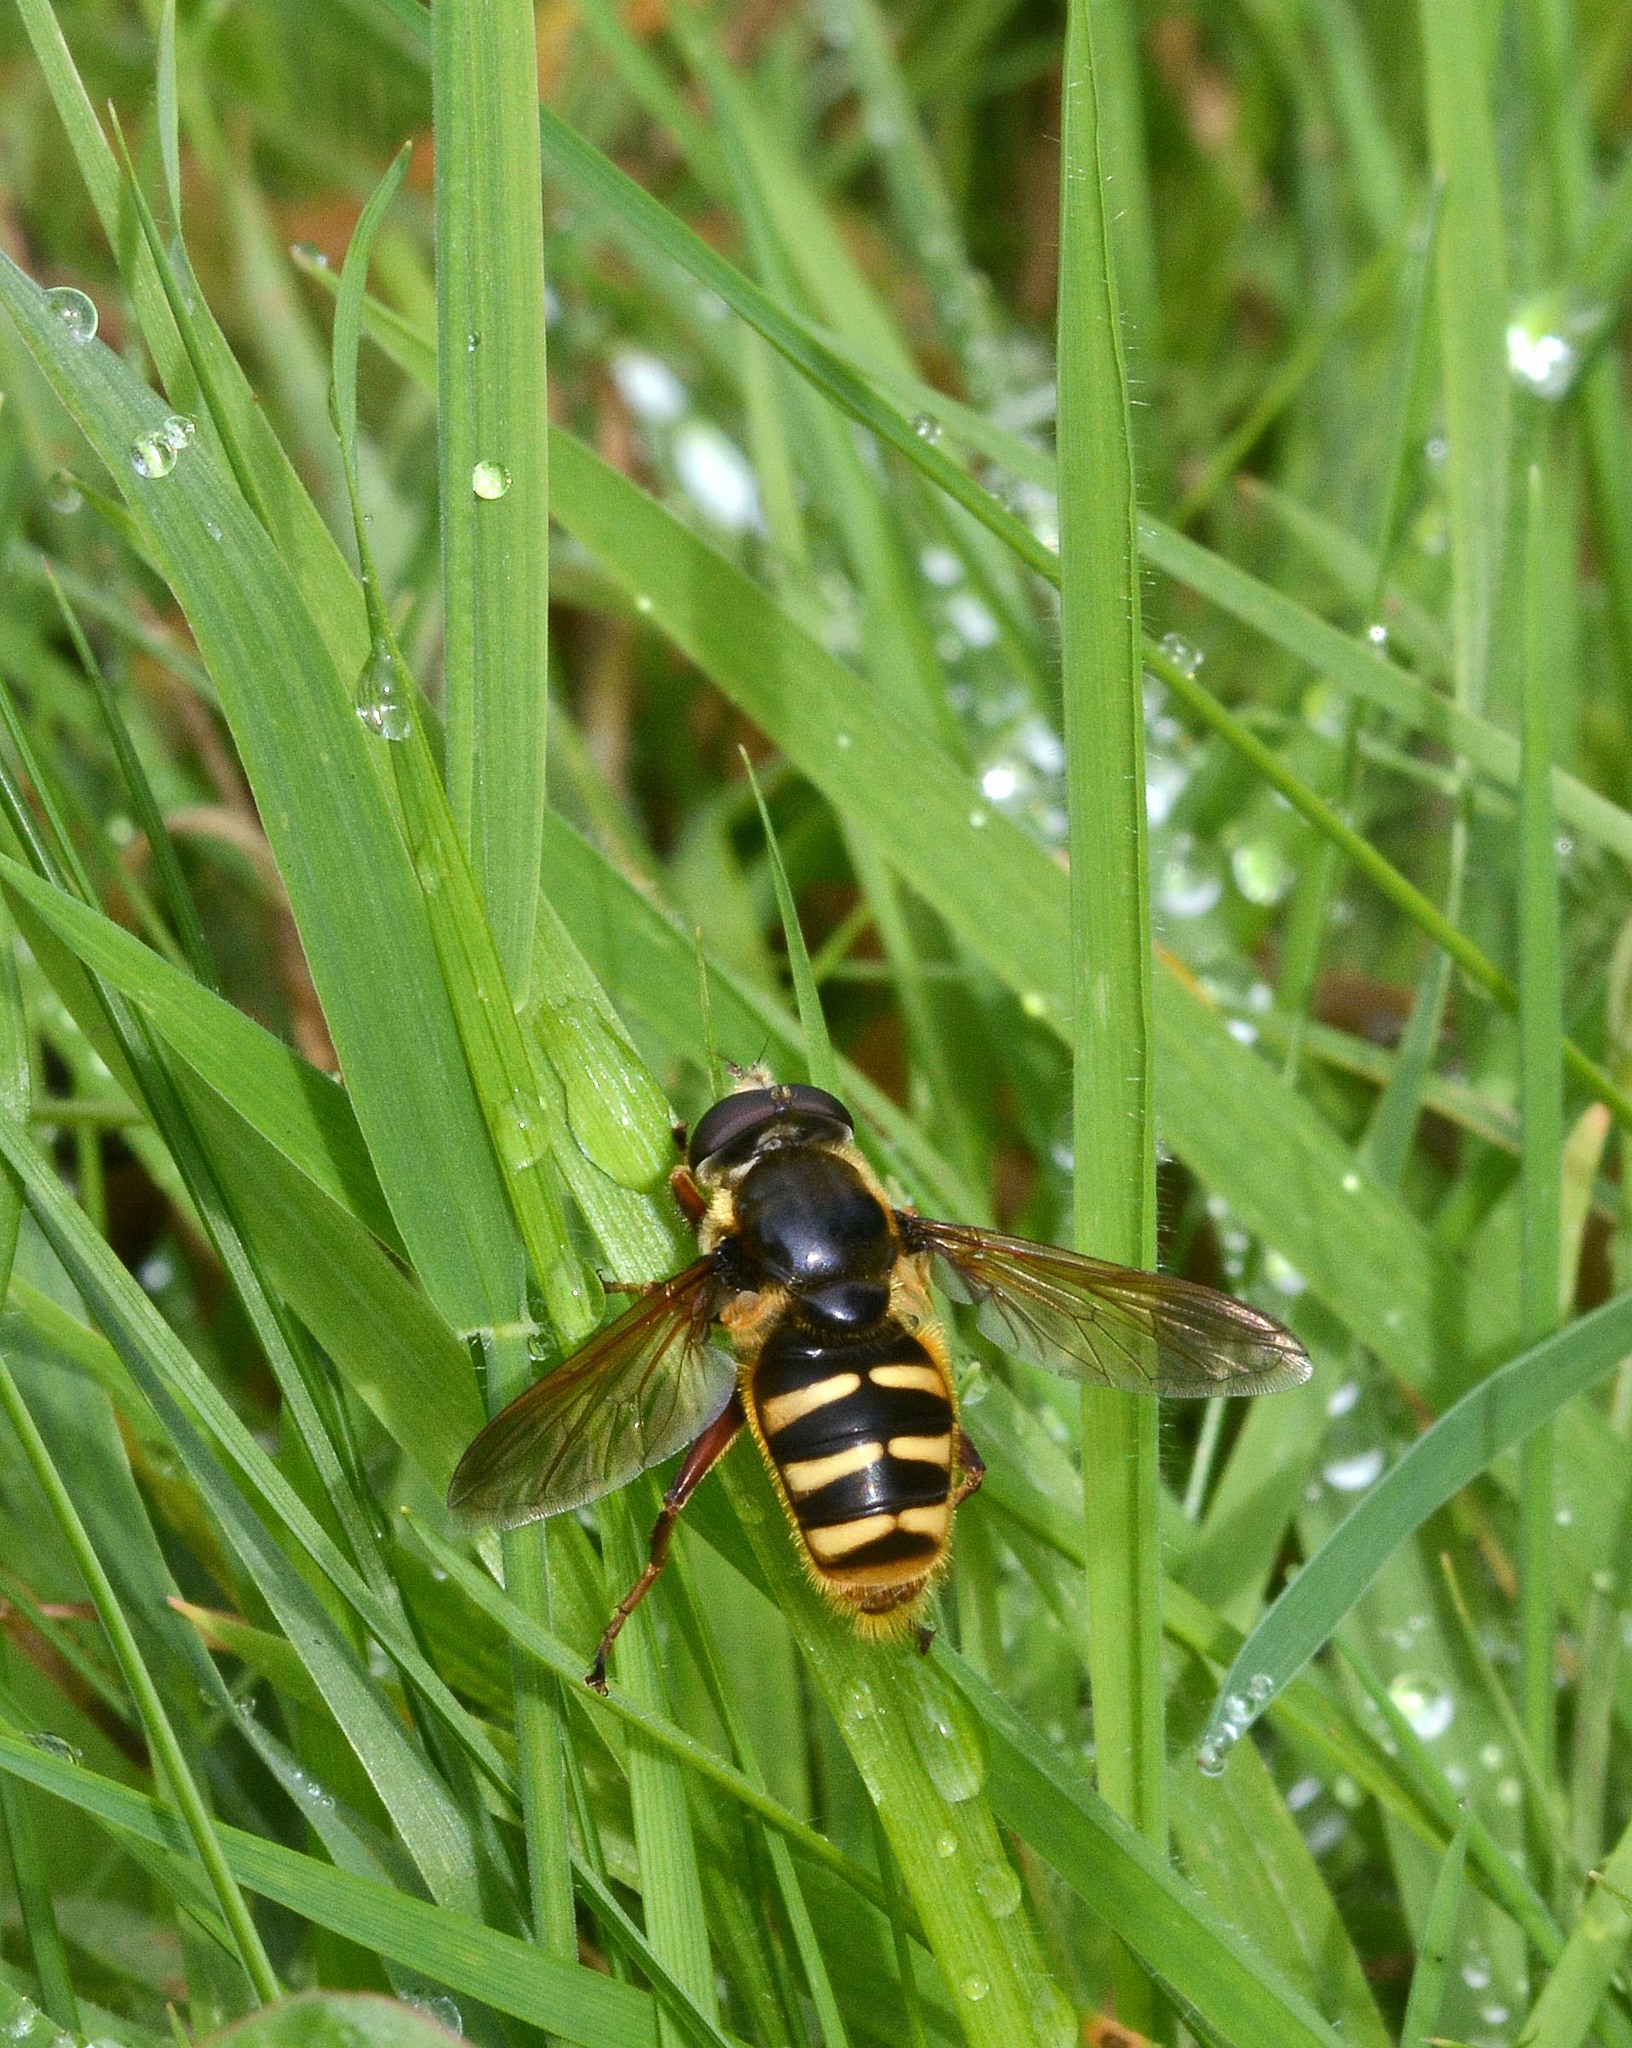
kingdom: Animalia
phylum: Arthropoda
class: Insecta
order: Diptera
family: Syrphidae
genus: Sericomyia
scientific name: Sericomyia silentis
